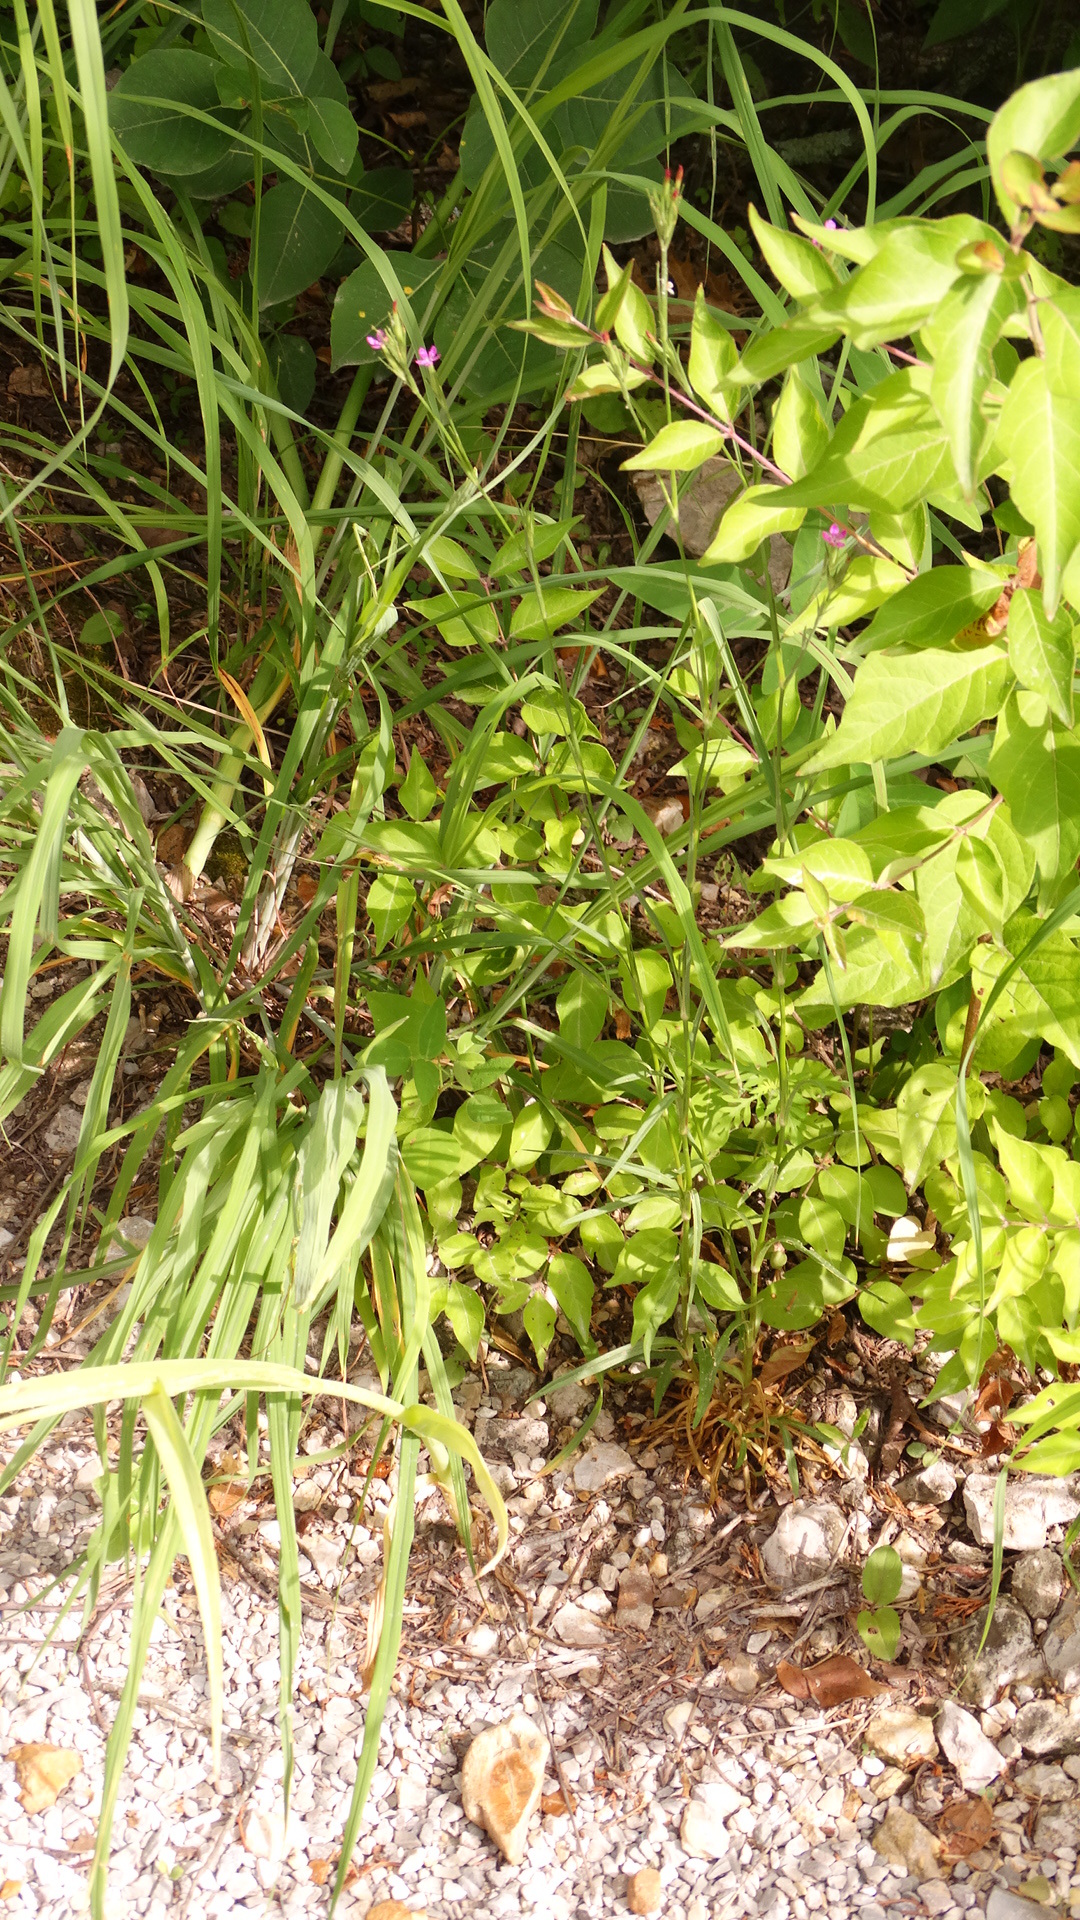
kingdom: Plantae
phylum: Tracheophyta
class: Magnoliopsida
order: Caryophyllales
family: Caryophyllaceae
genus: Dianthus
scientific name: Dianthus armeria
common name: Deptford pink
